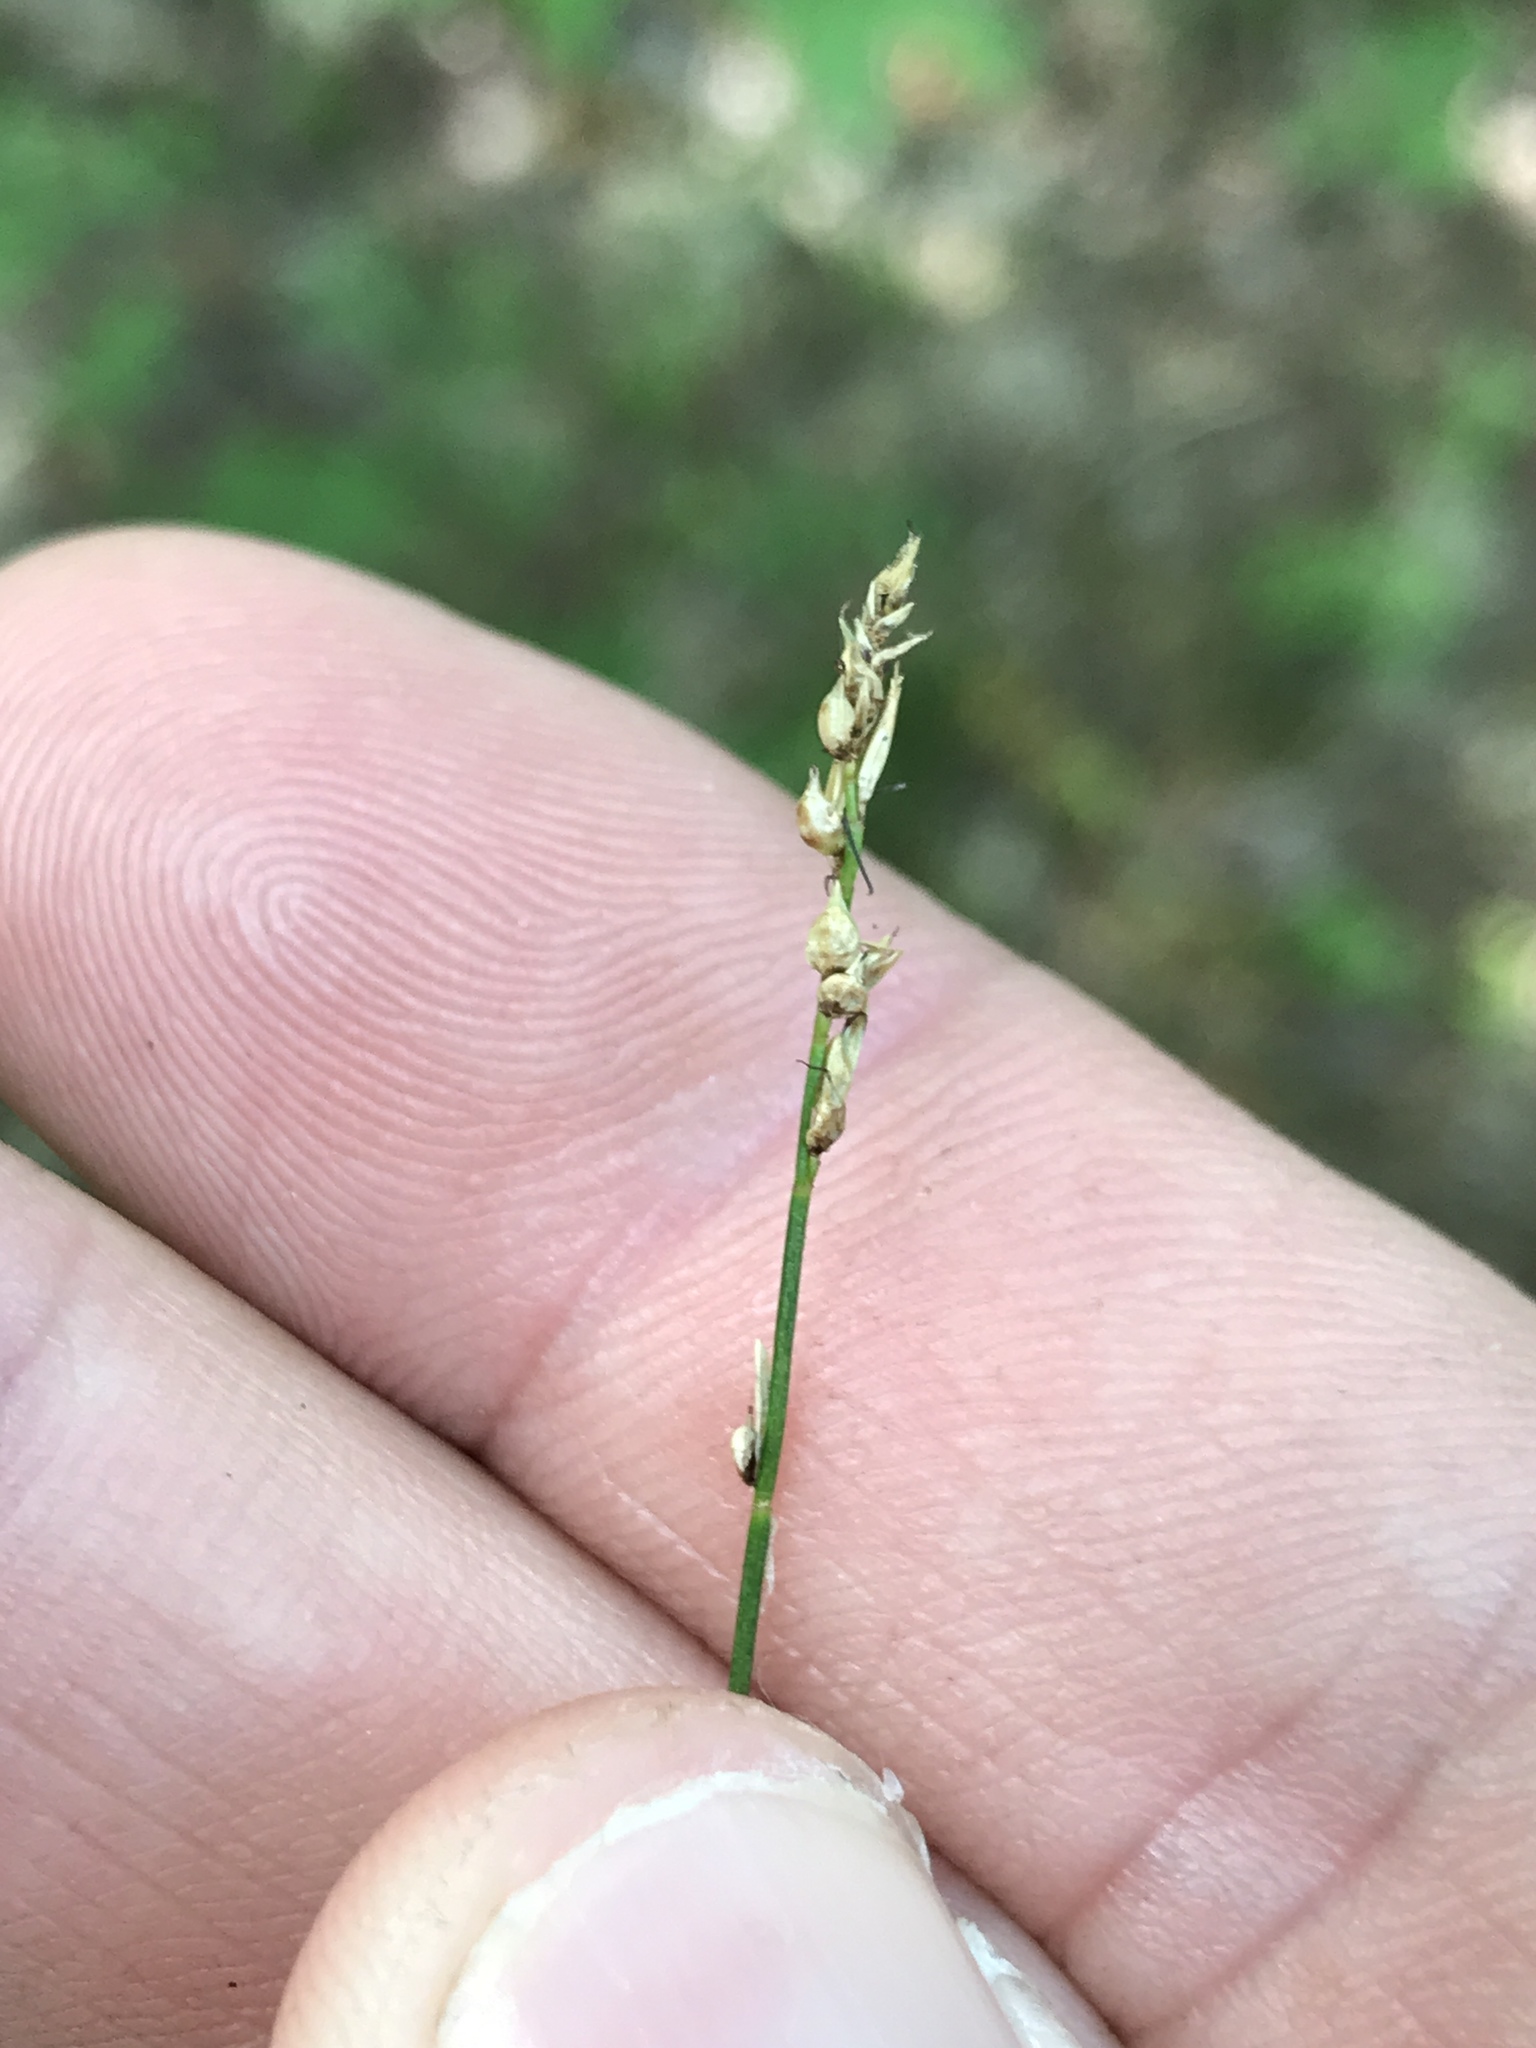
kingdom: Plantae
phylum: Tracheophyta
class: Liliopsida
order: Poales
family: Cyperaceae
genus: Carex
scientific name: Carex retroflexa
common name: Reflexed sedge
